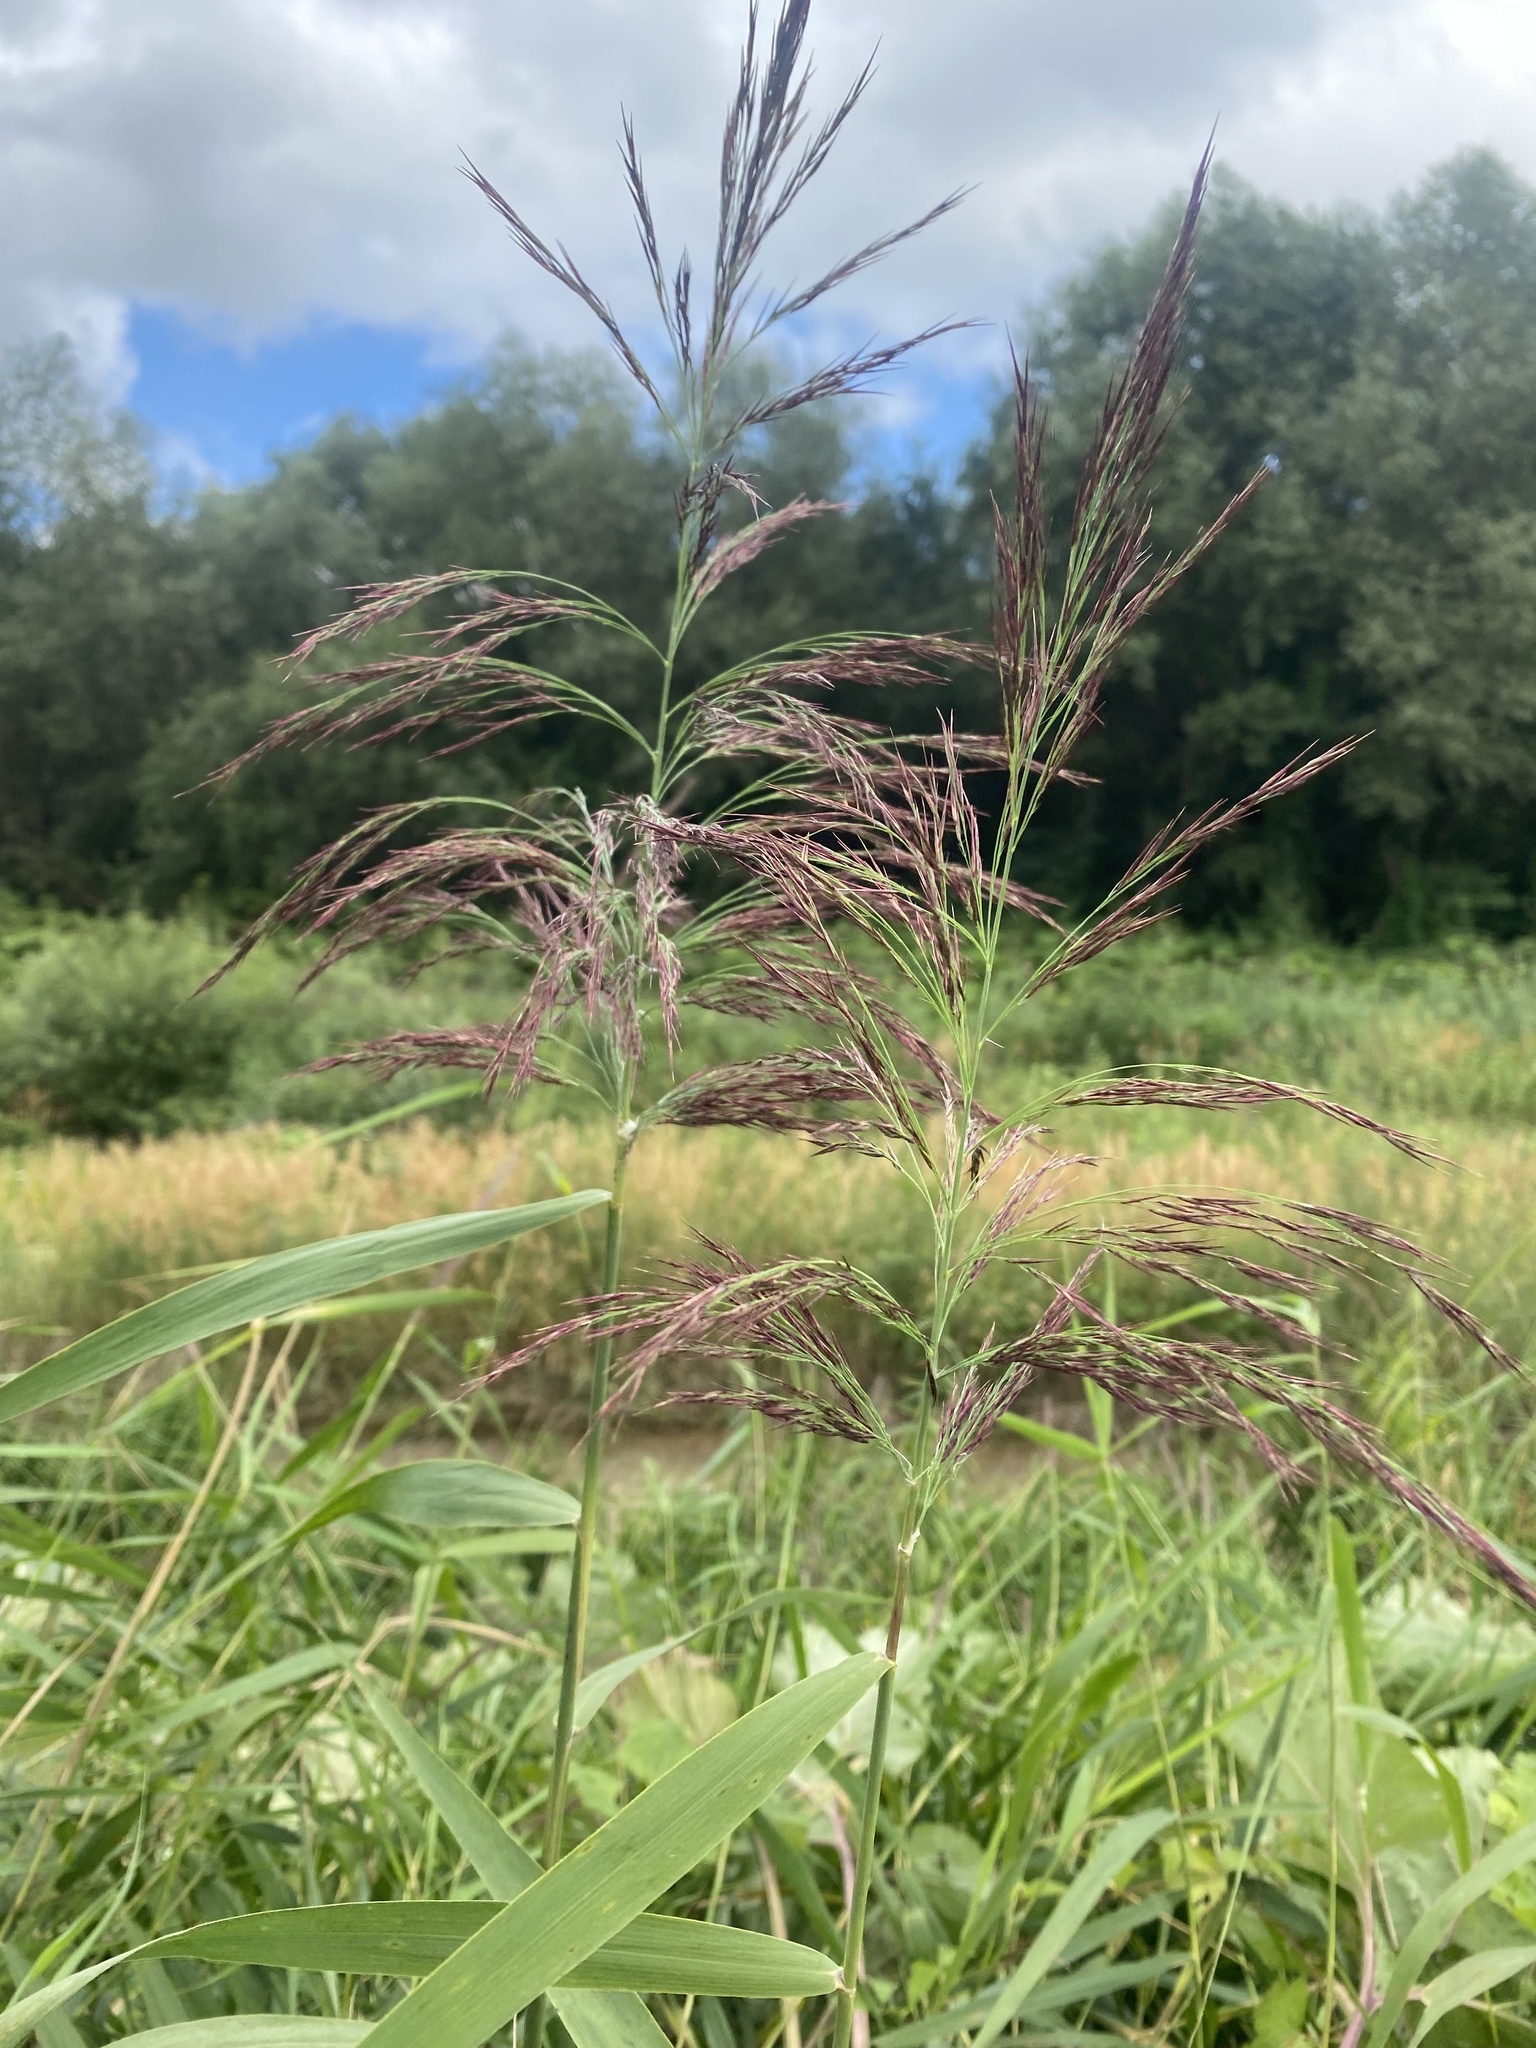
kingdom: Plantae
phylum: Tracheophyta
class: Liliopsida
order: Poales
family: Poaceae
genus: Phragmites
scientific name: Phragmites australis
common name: Common reed
